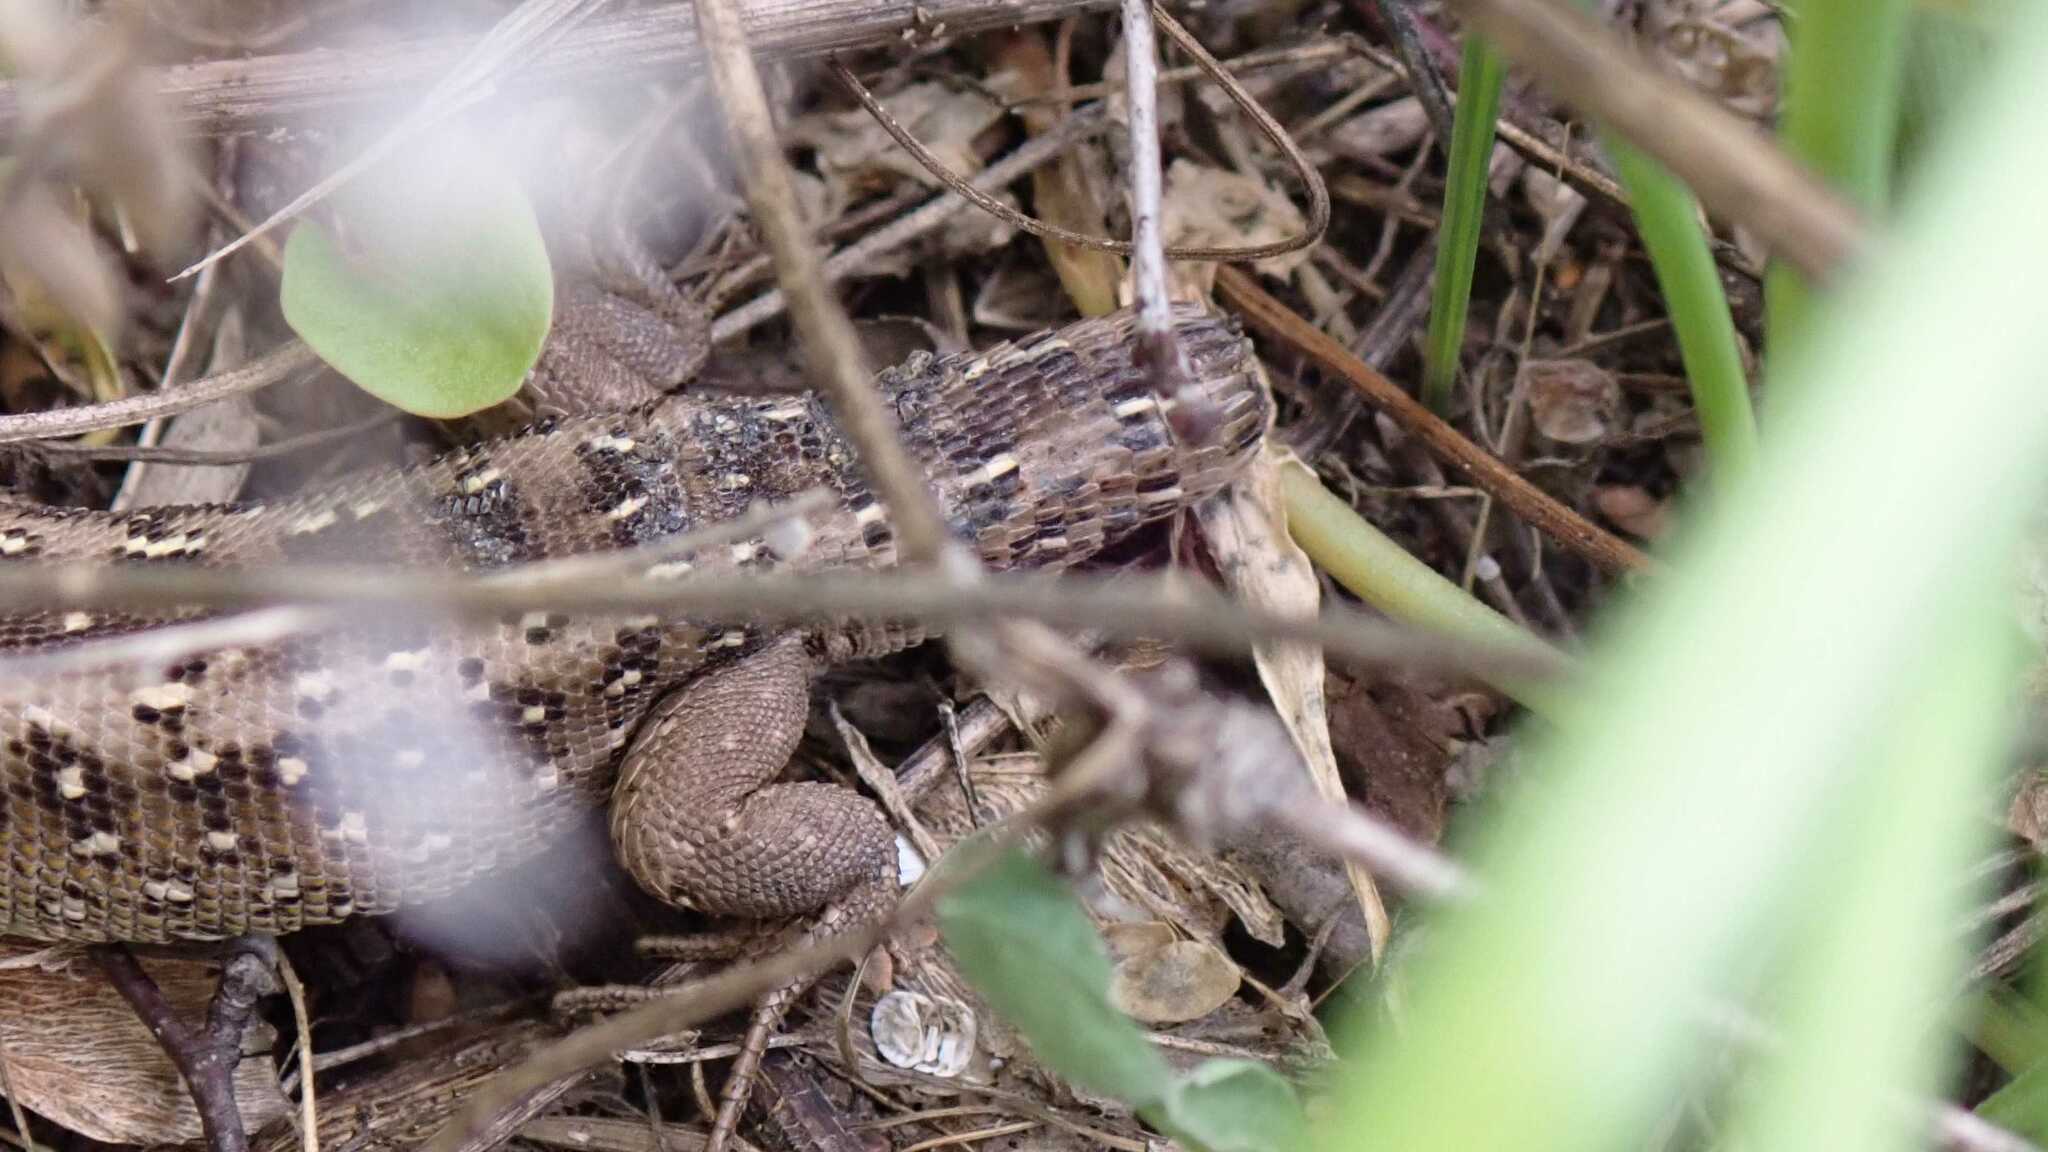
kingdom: Animalia
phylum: Chordata
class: Squamata
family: Lacertidae
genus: Lacerta
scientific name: Lacerta agilis
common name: Sand lizard
